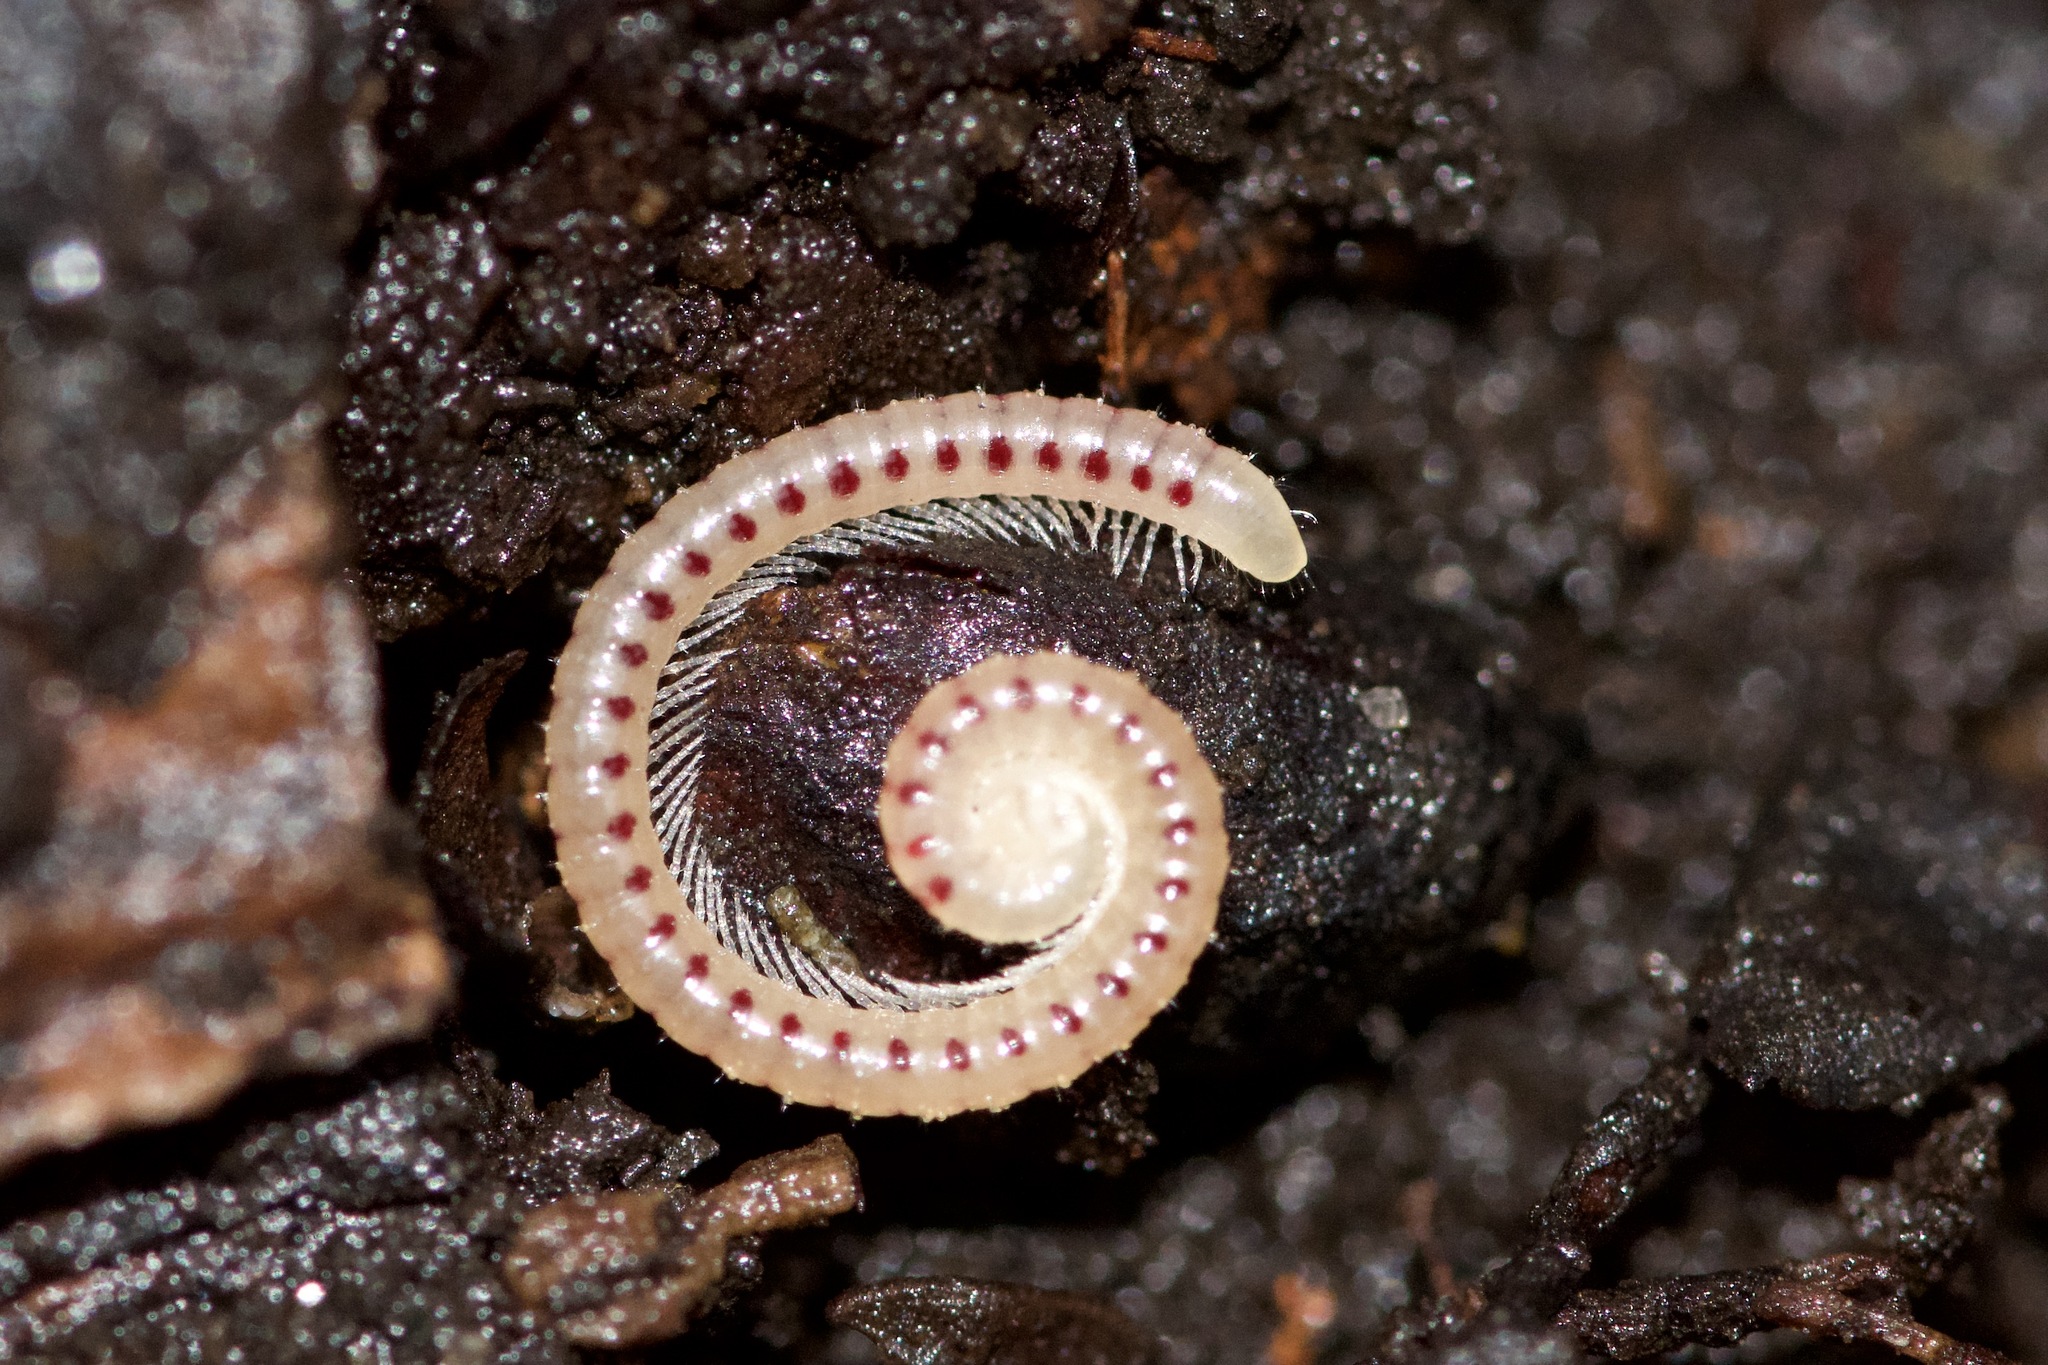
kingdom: Animalia
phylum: Arthropoda
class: Diplopoda
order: Julida
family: Blaniulidae
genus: Blaniulus
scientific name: Blaniulus guttulatus
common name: Spotted snake millipede
